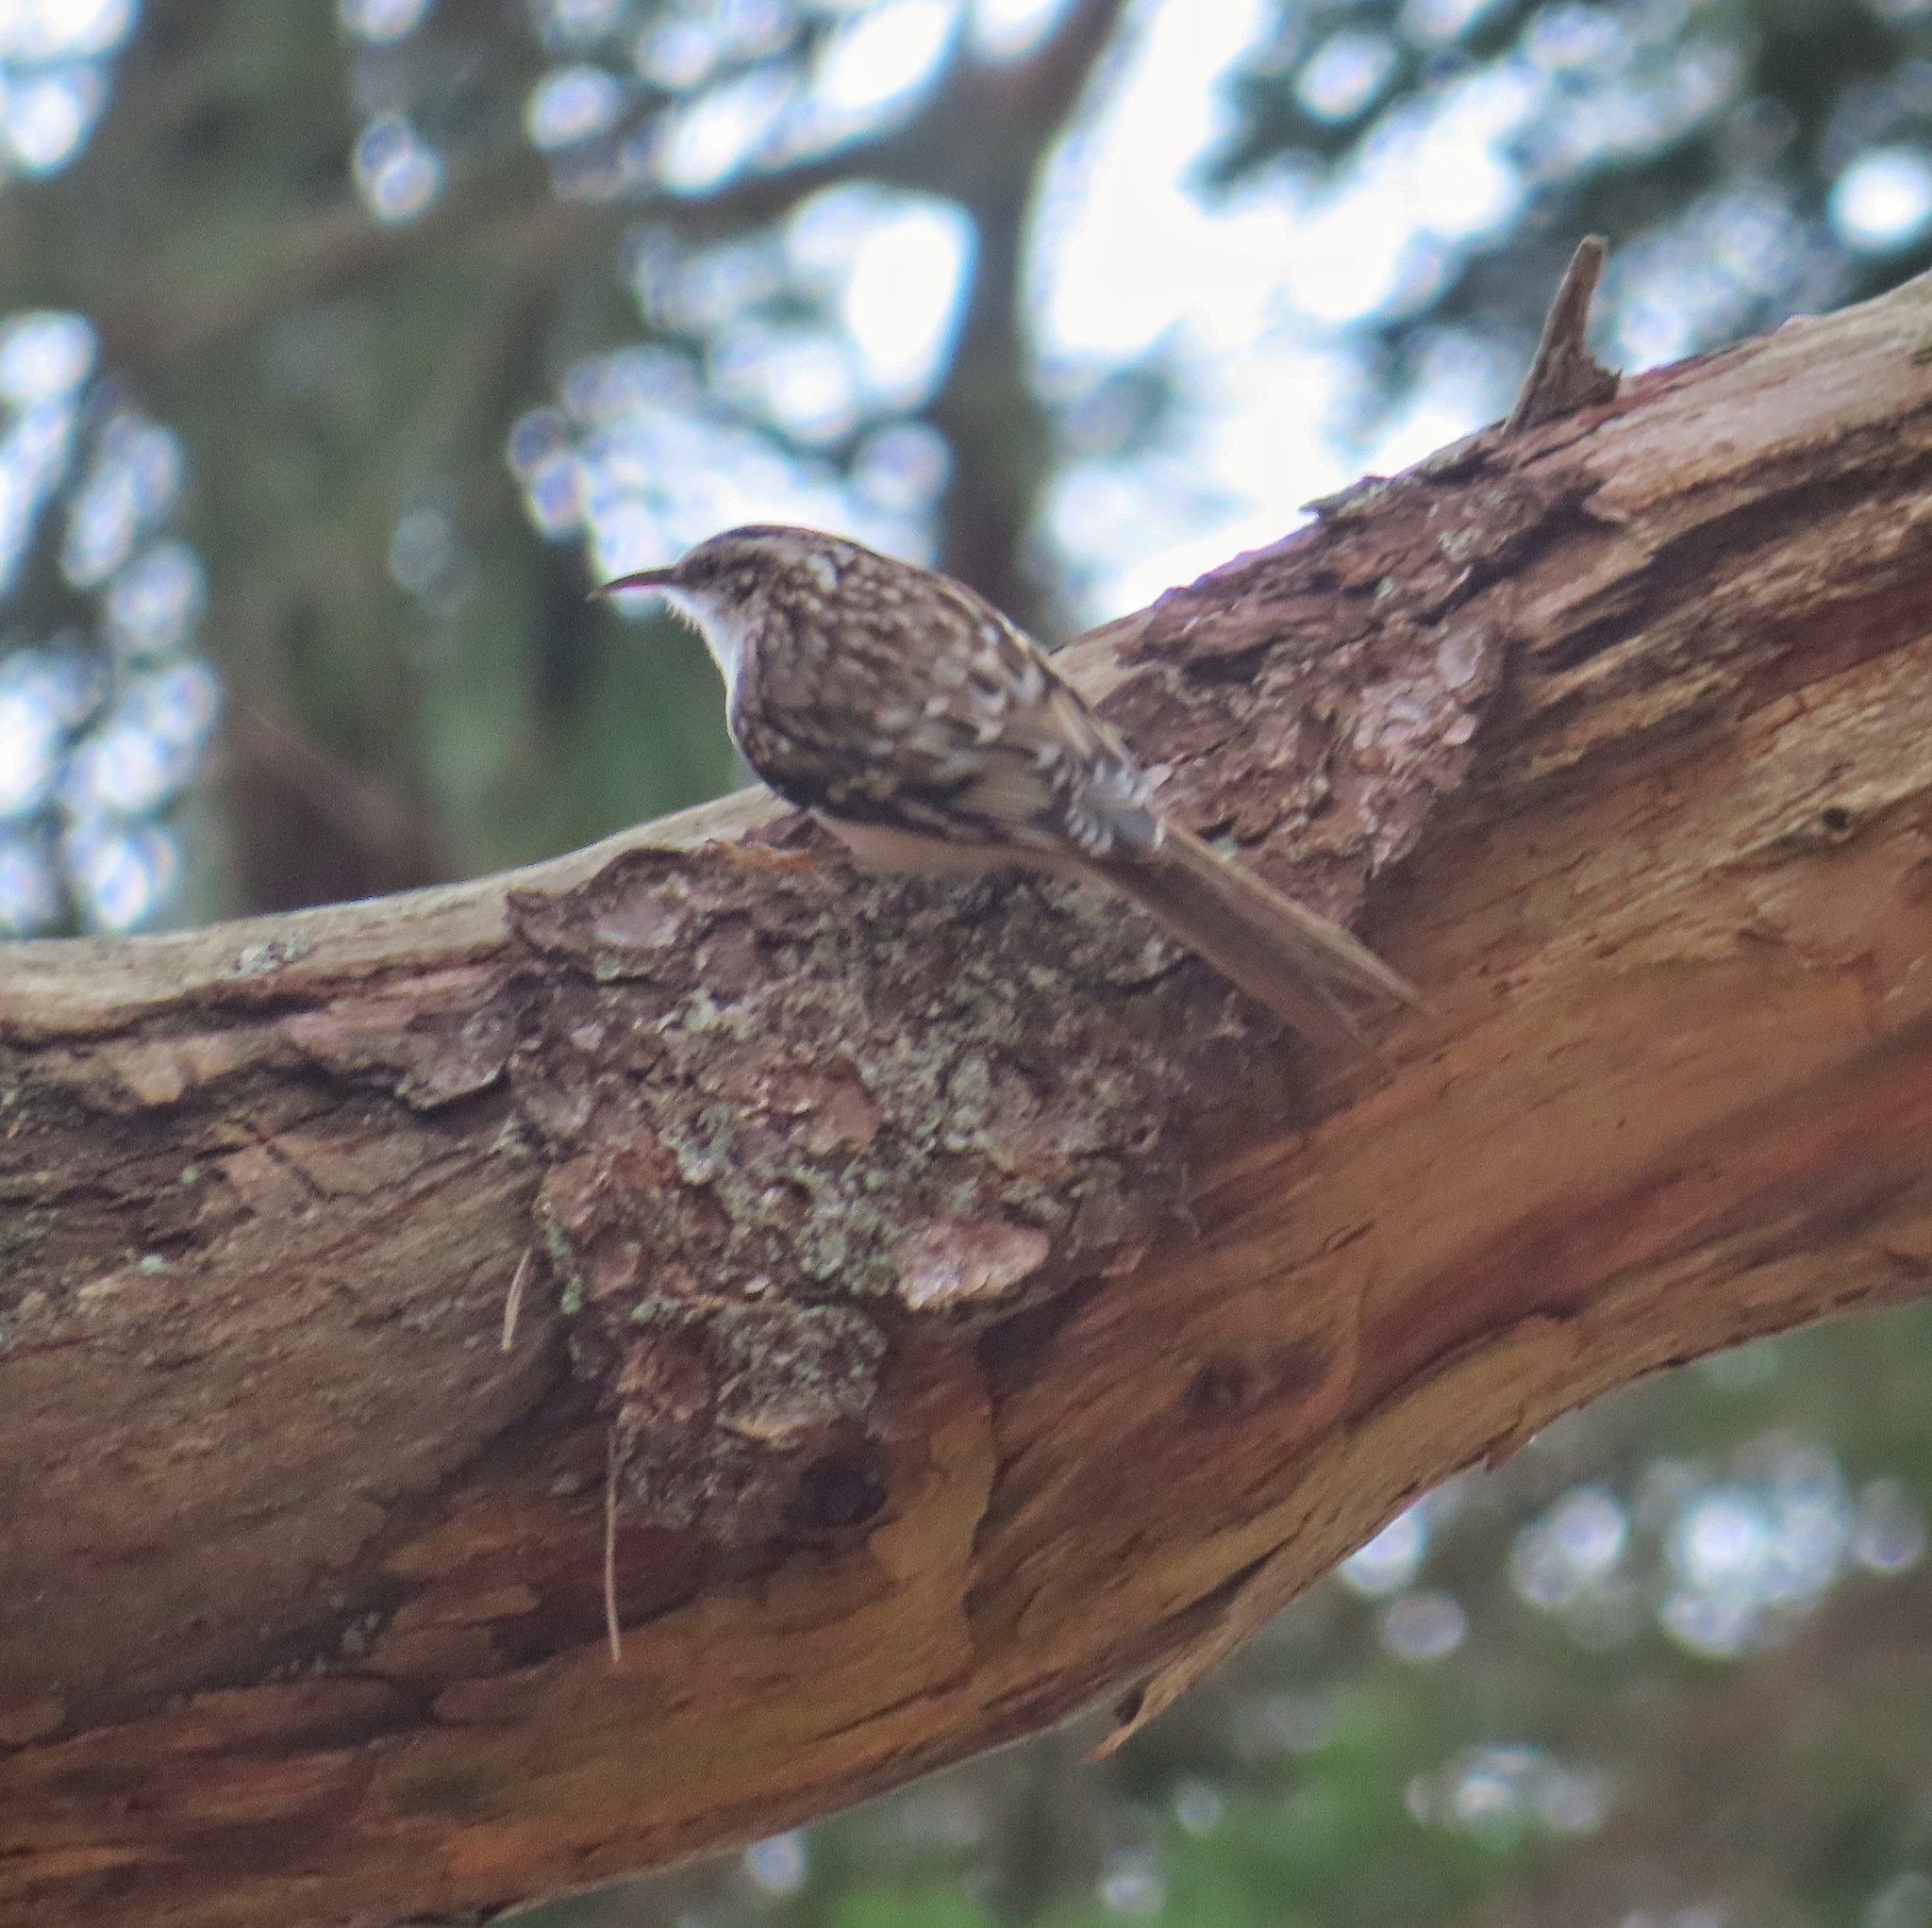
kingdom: Animalia
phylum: Chordata
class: Aves
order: Passeriformes
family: Certhiidae
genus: Certhia
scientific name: Certhia americana
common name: Brown creeper
